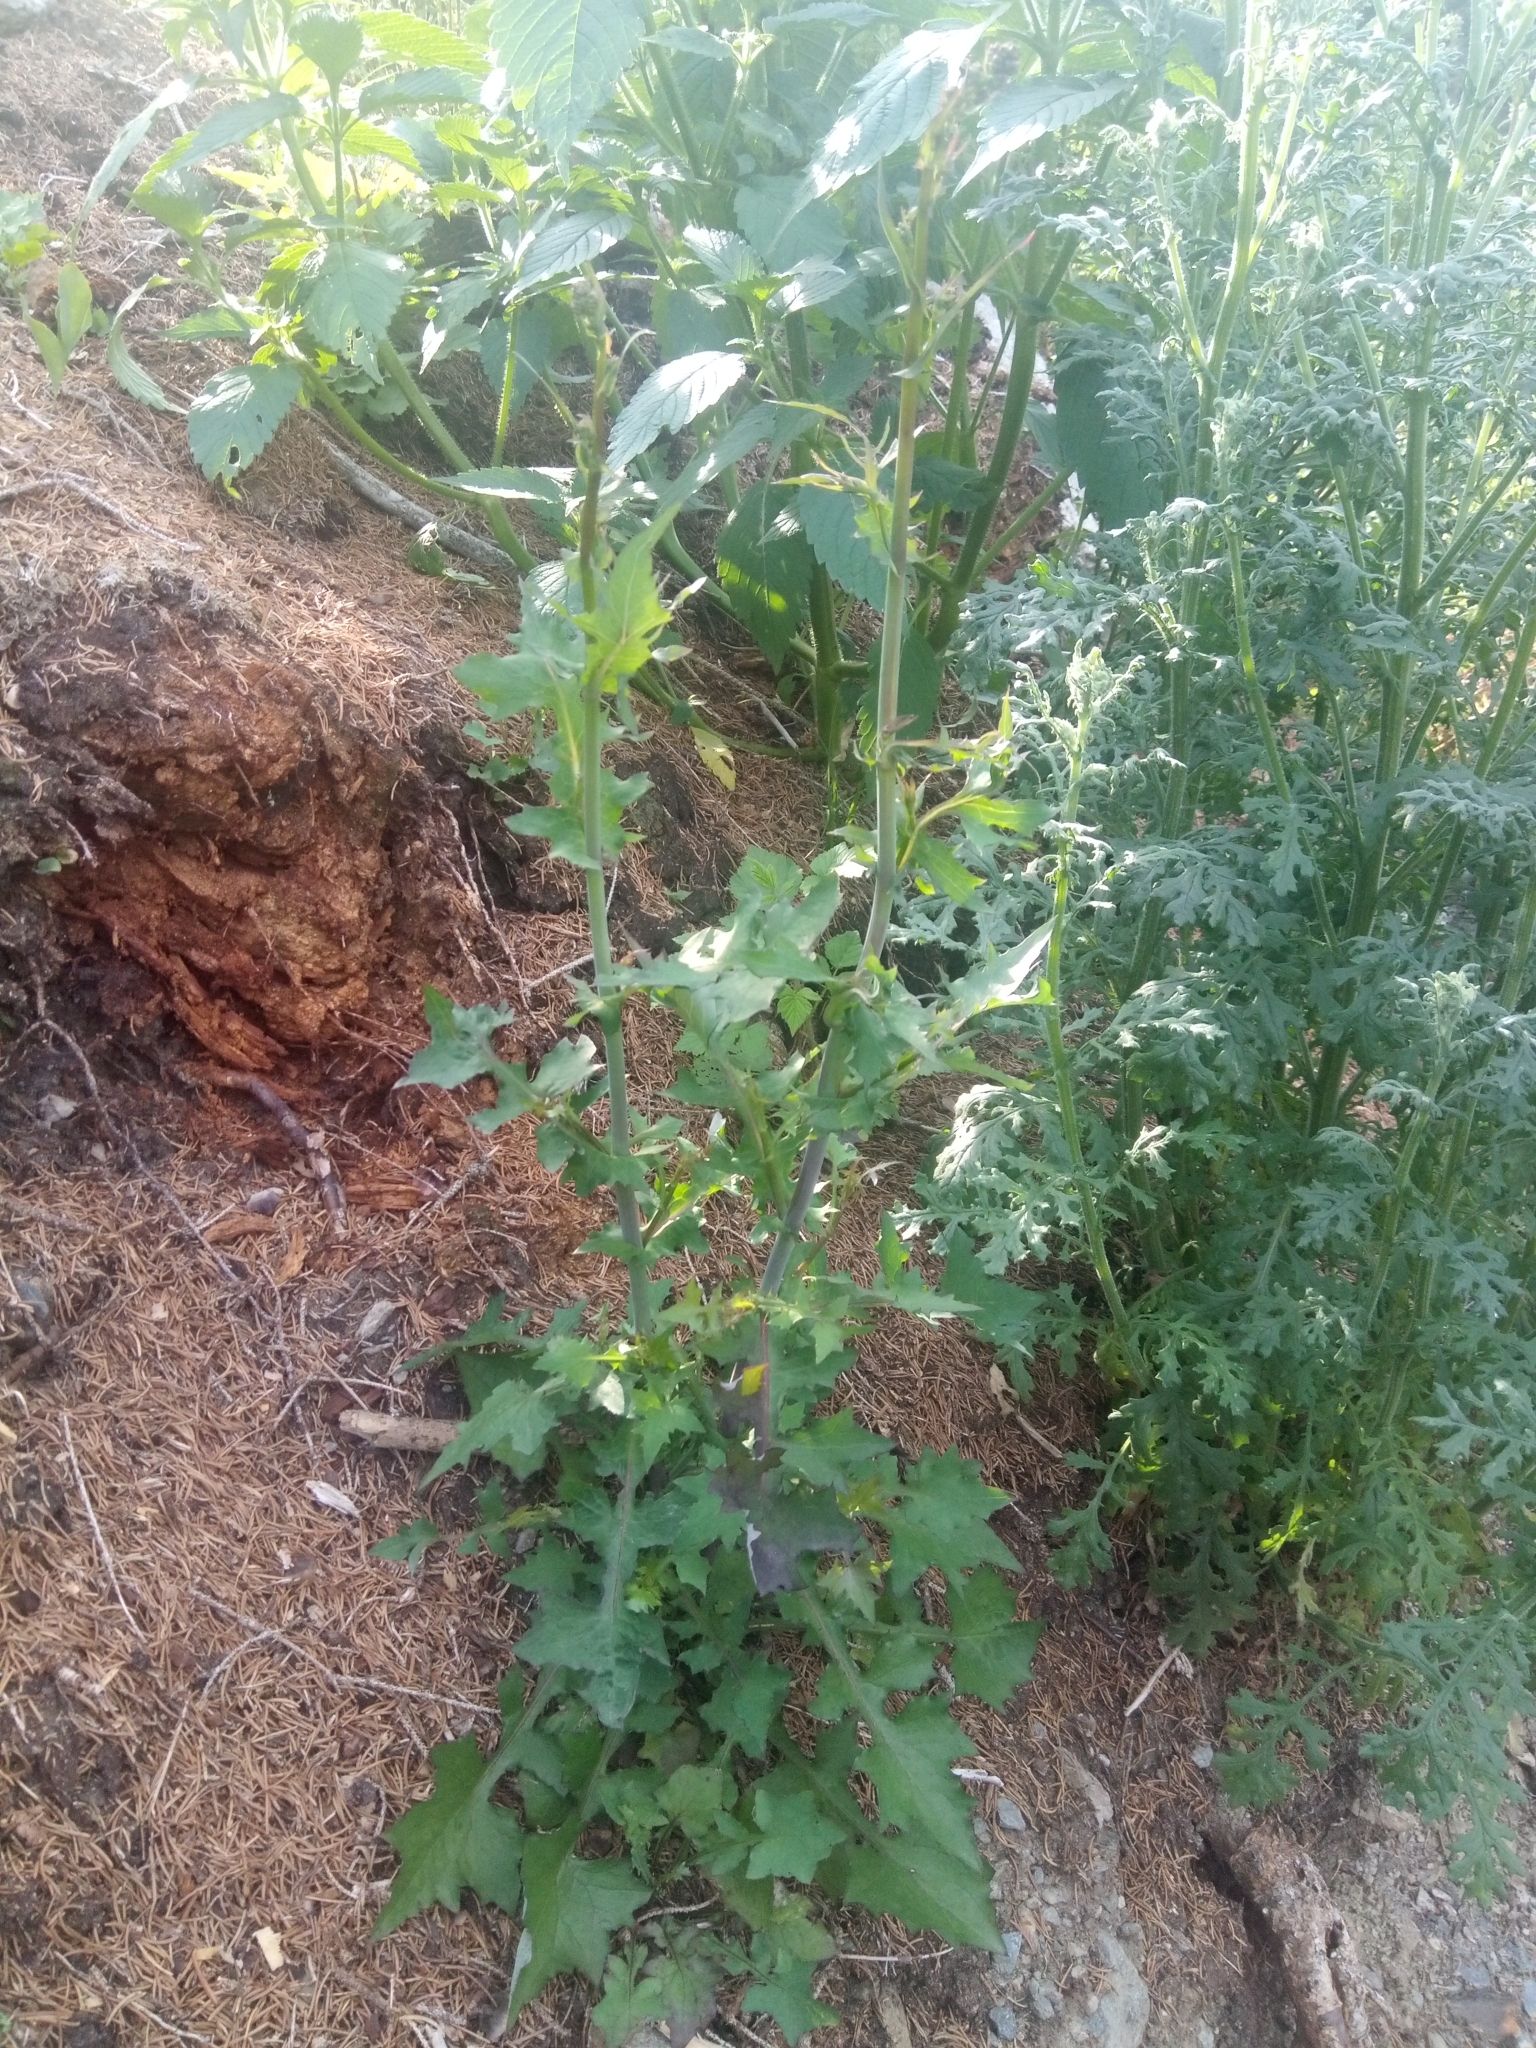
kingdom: Plantae
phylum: Tracheophyta
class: Magnoliopsida
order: Asterales
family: Asteraceae
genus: Mycelis
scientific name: Mycelis muralis
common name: Wall lettuce
